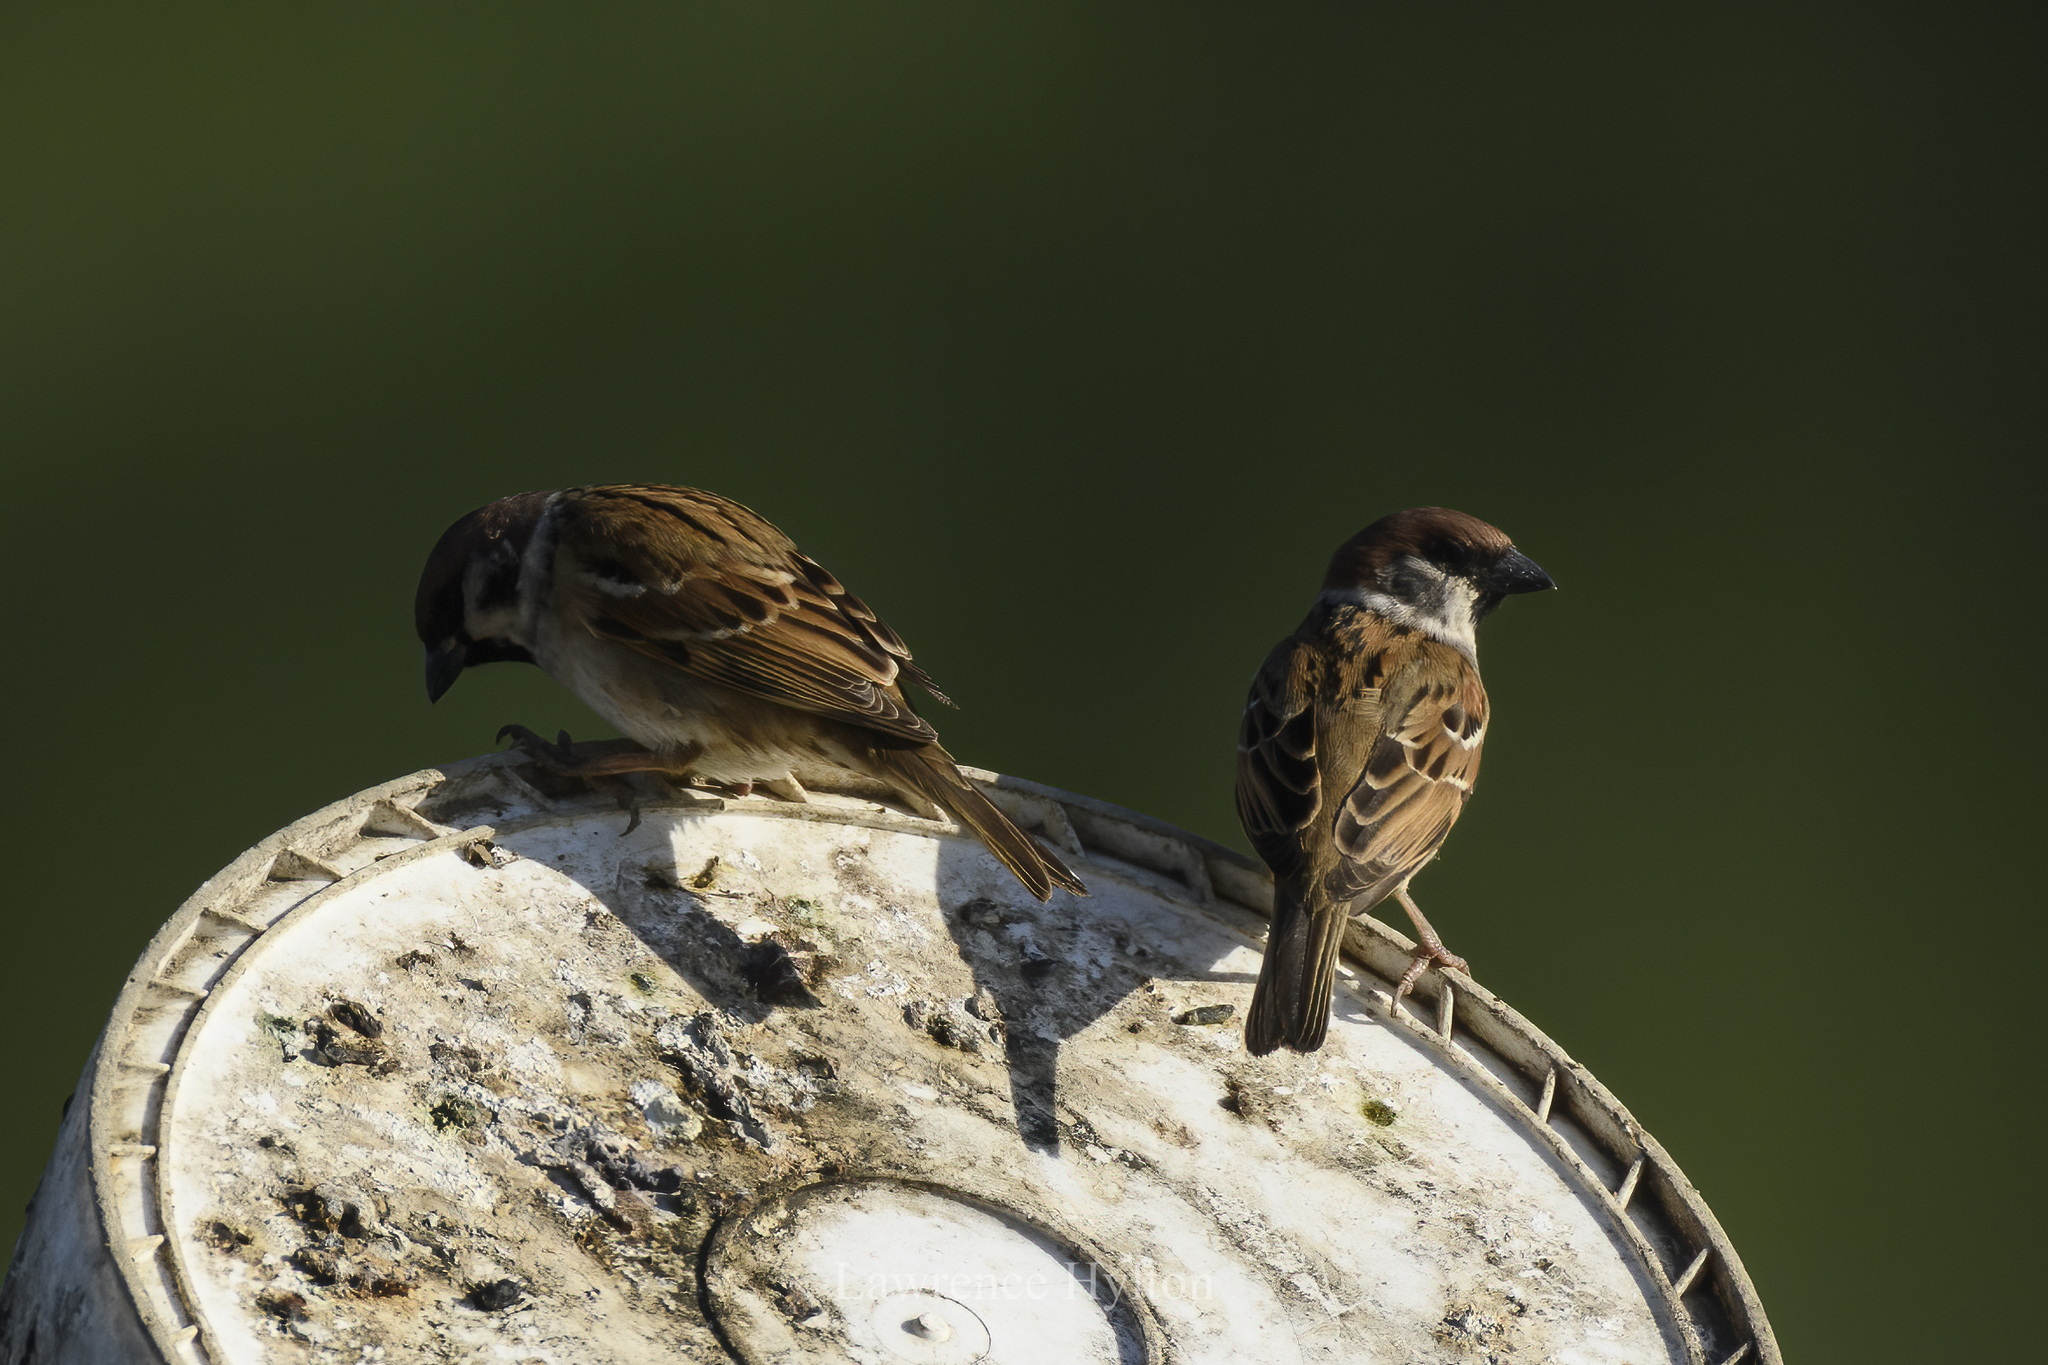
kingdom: Animalia
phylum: Chordata
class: Aves
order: Passeriformes
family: Passeridae
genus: Passer
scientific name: Passer montanus
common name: Eurasian tree sparrow
